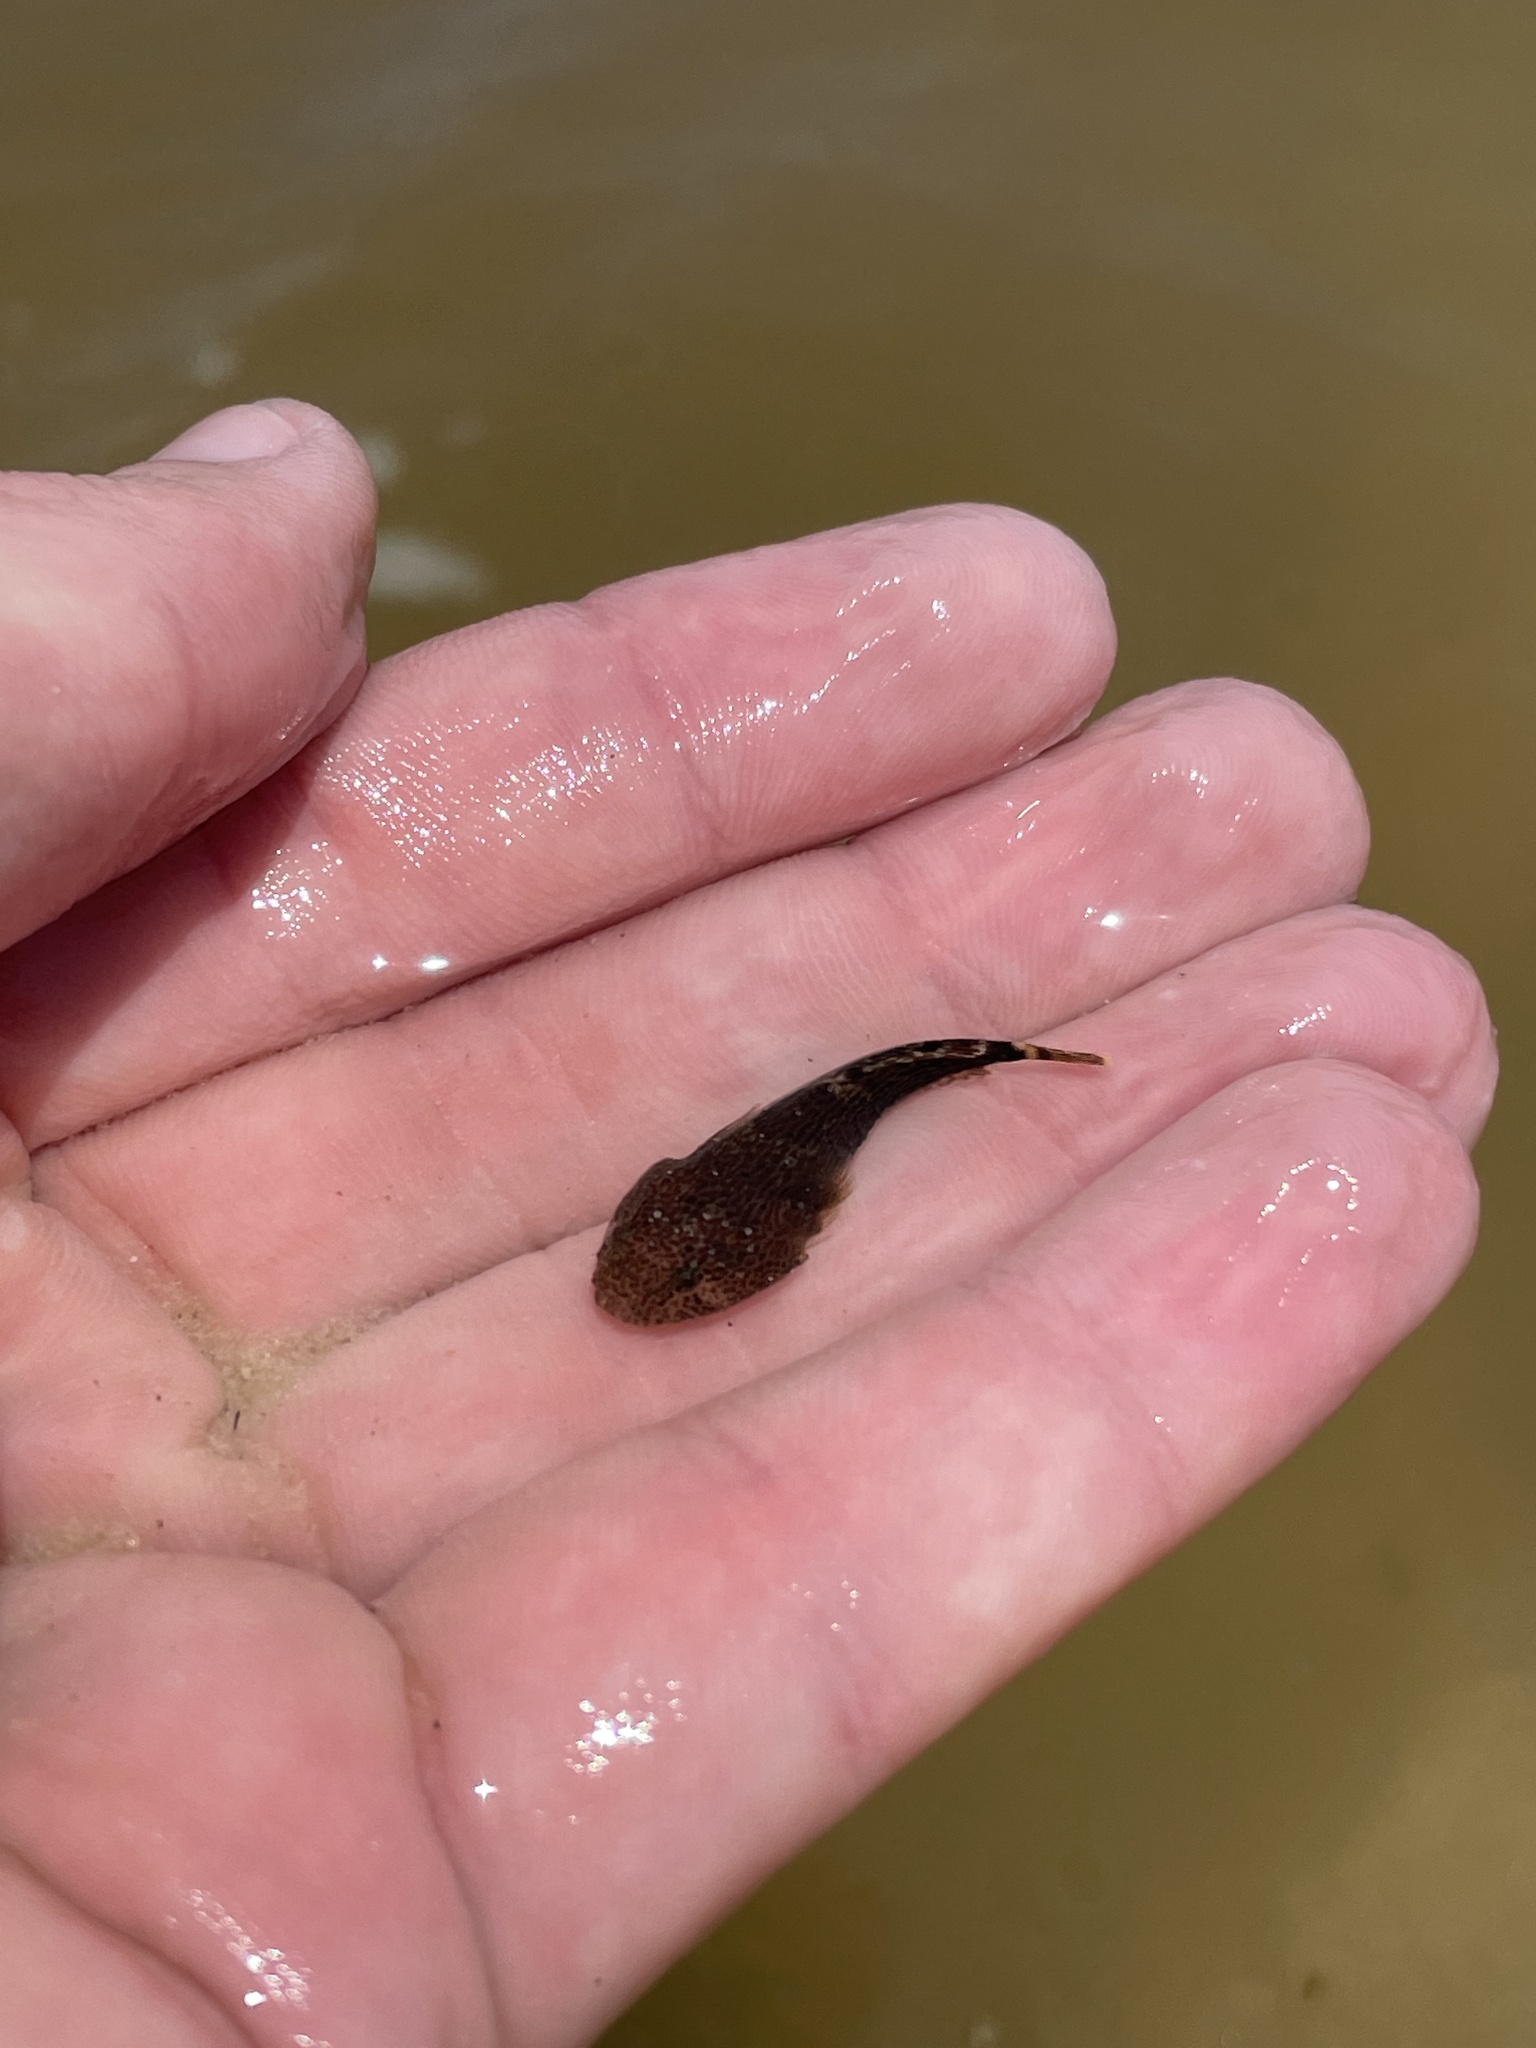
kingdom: Animalia
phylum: Chordata
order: Gobiesociformes
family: Gobiesocidae
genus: Gobiesox
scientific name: Gobiesox strumosus
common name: Skilletfish
